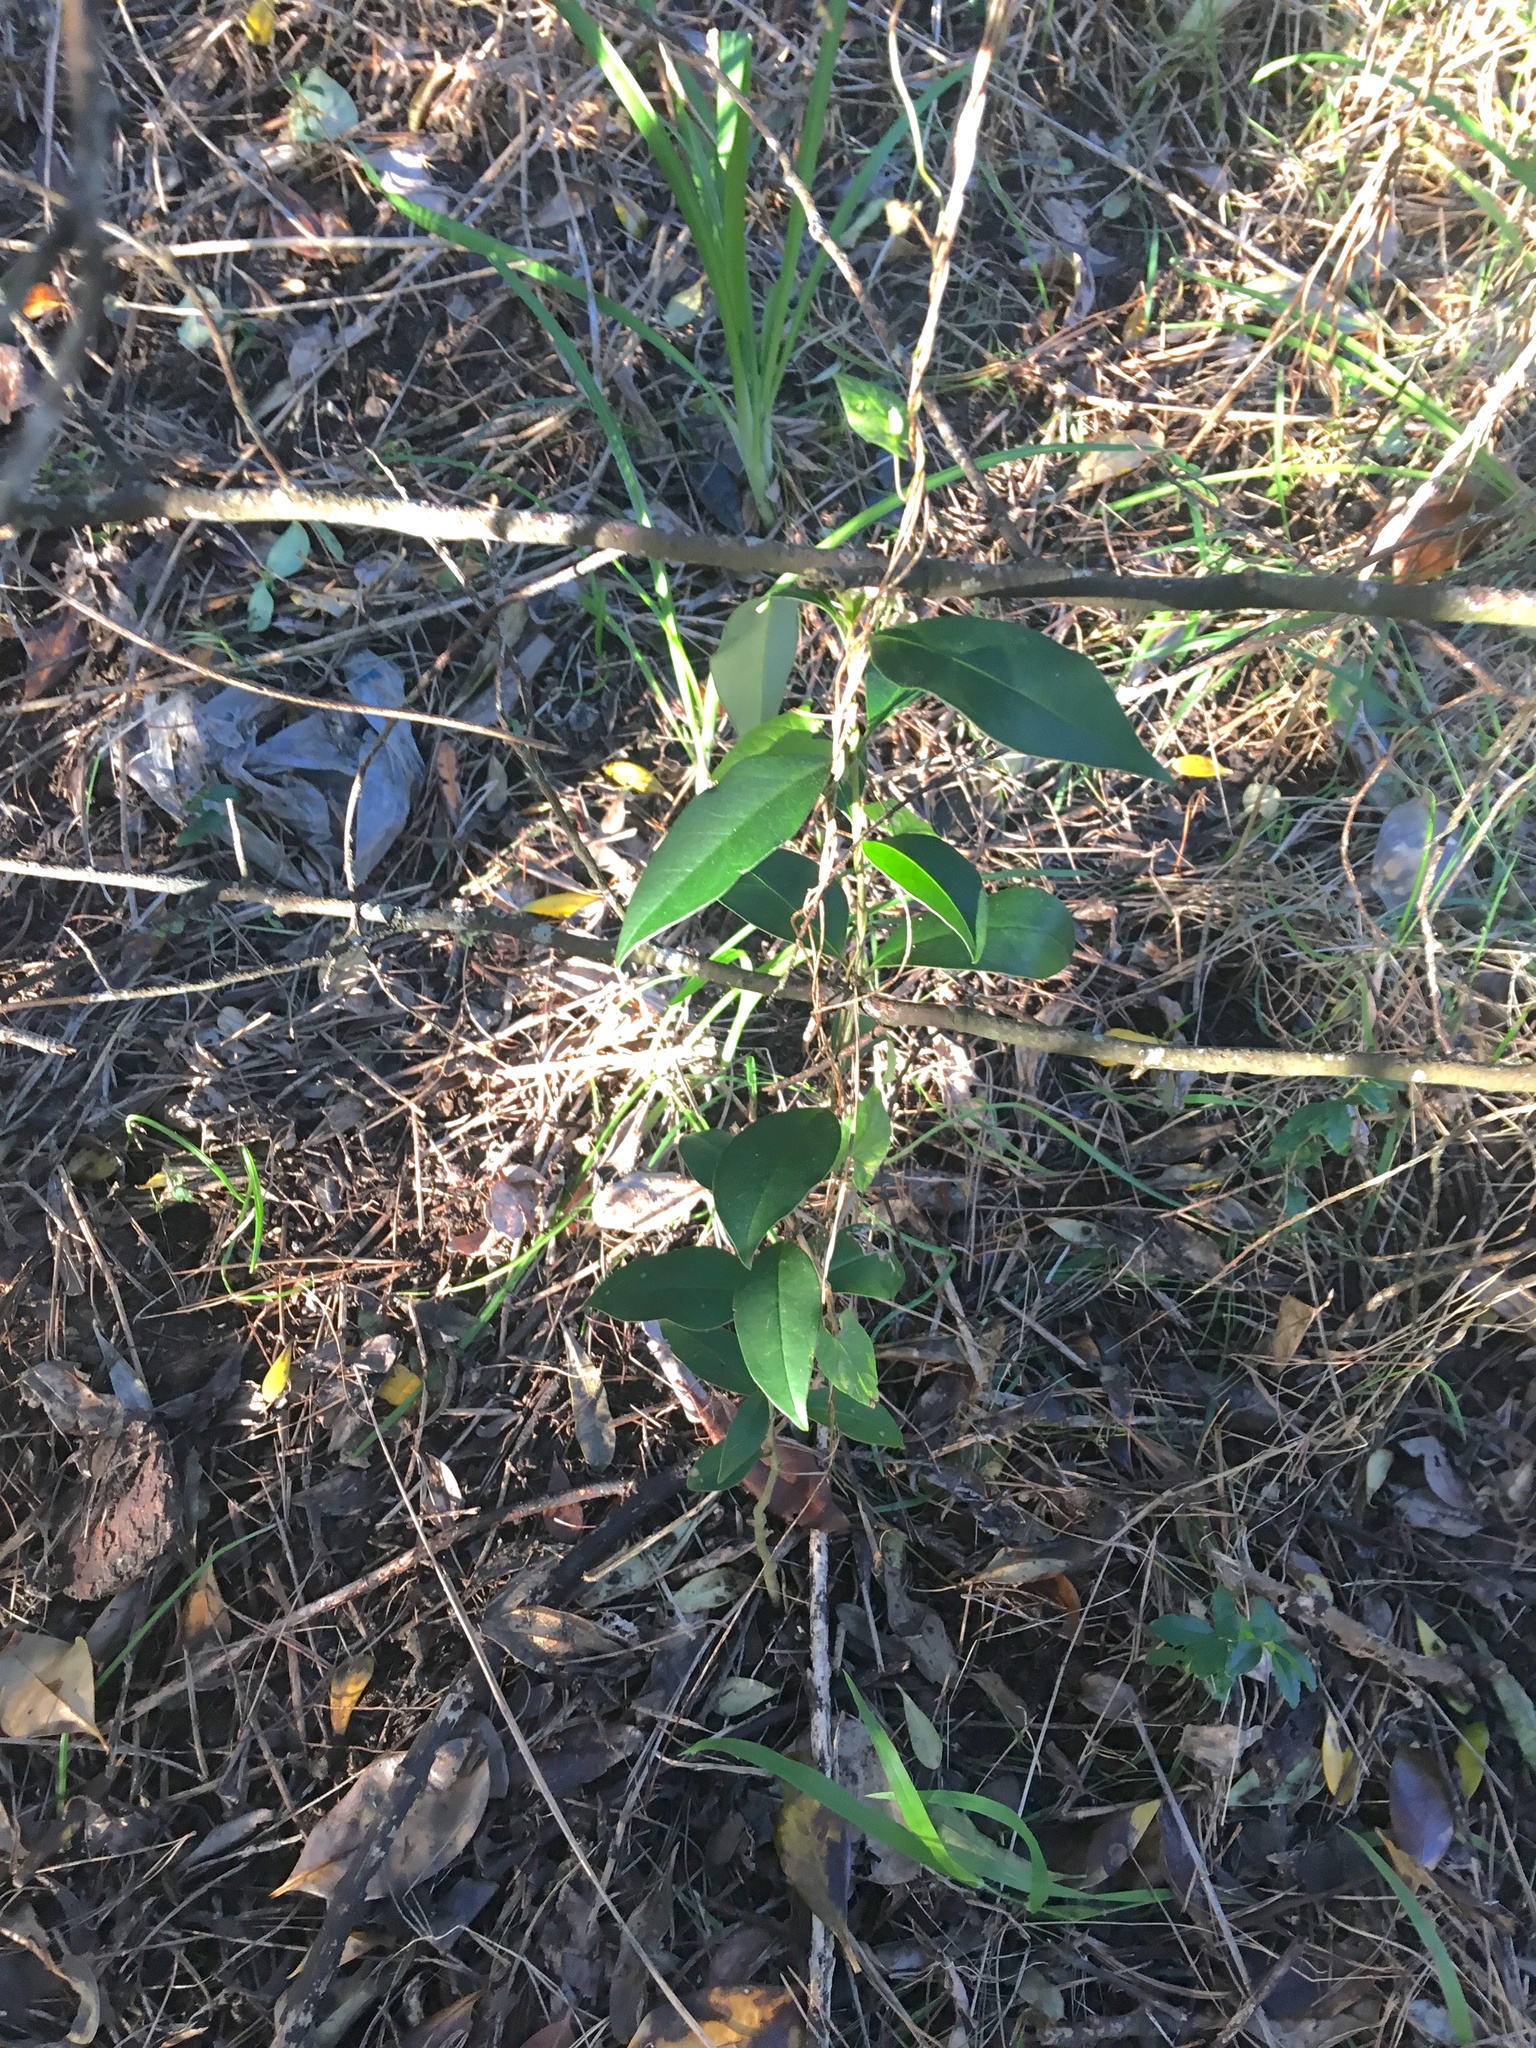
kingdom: Plantae
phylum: Tracheophyta
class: Magnoliopsida
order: Lamiales
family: Oleaceae
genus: Ligustrum
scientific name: Ligustrum lucidum
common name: Glossy privet
